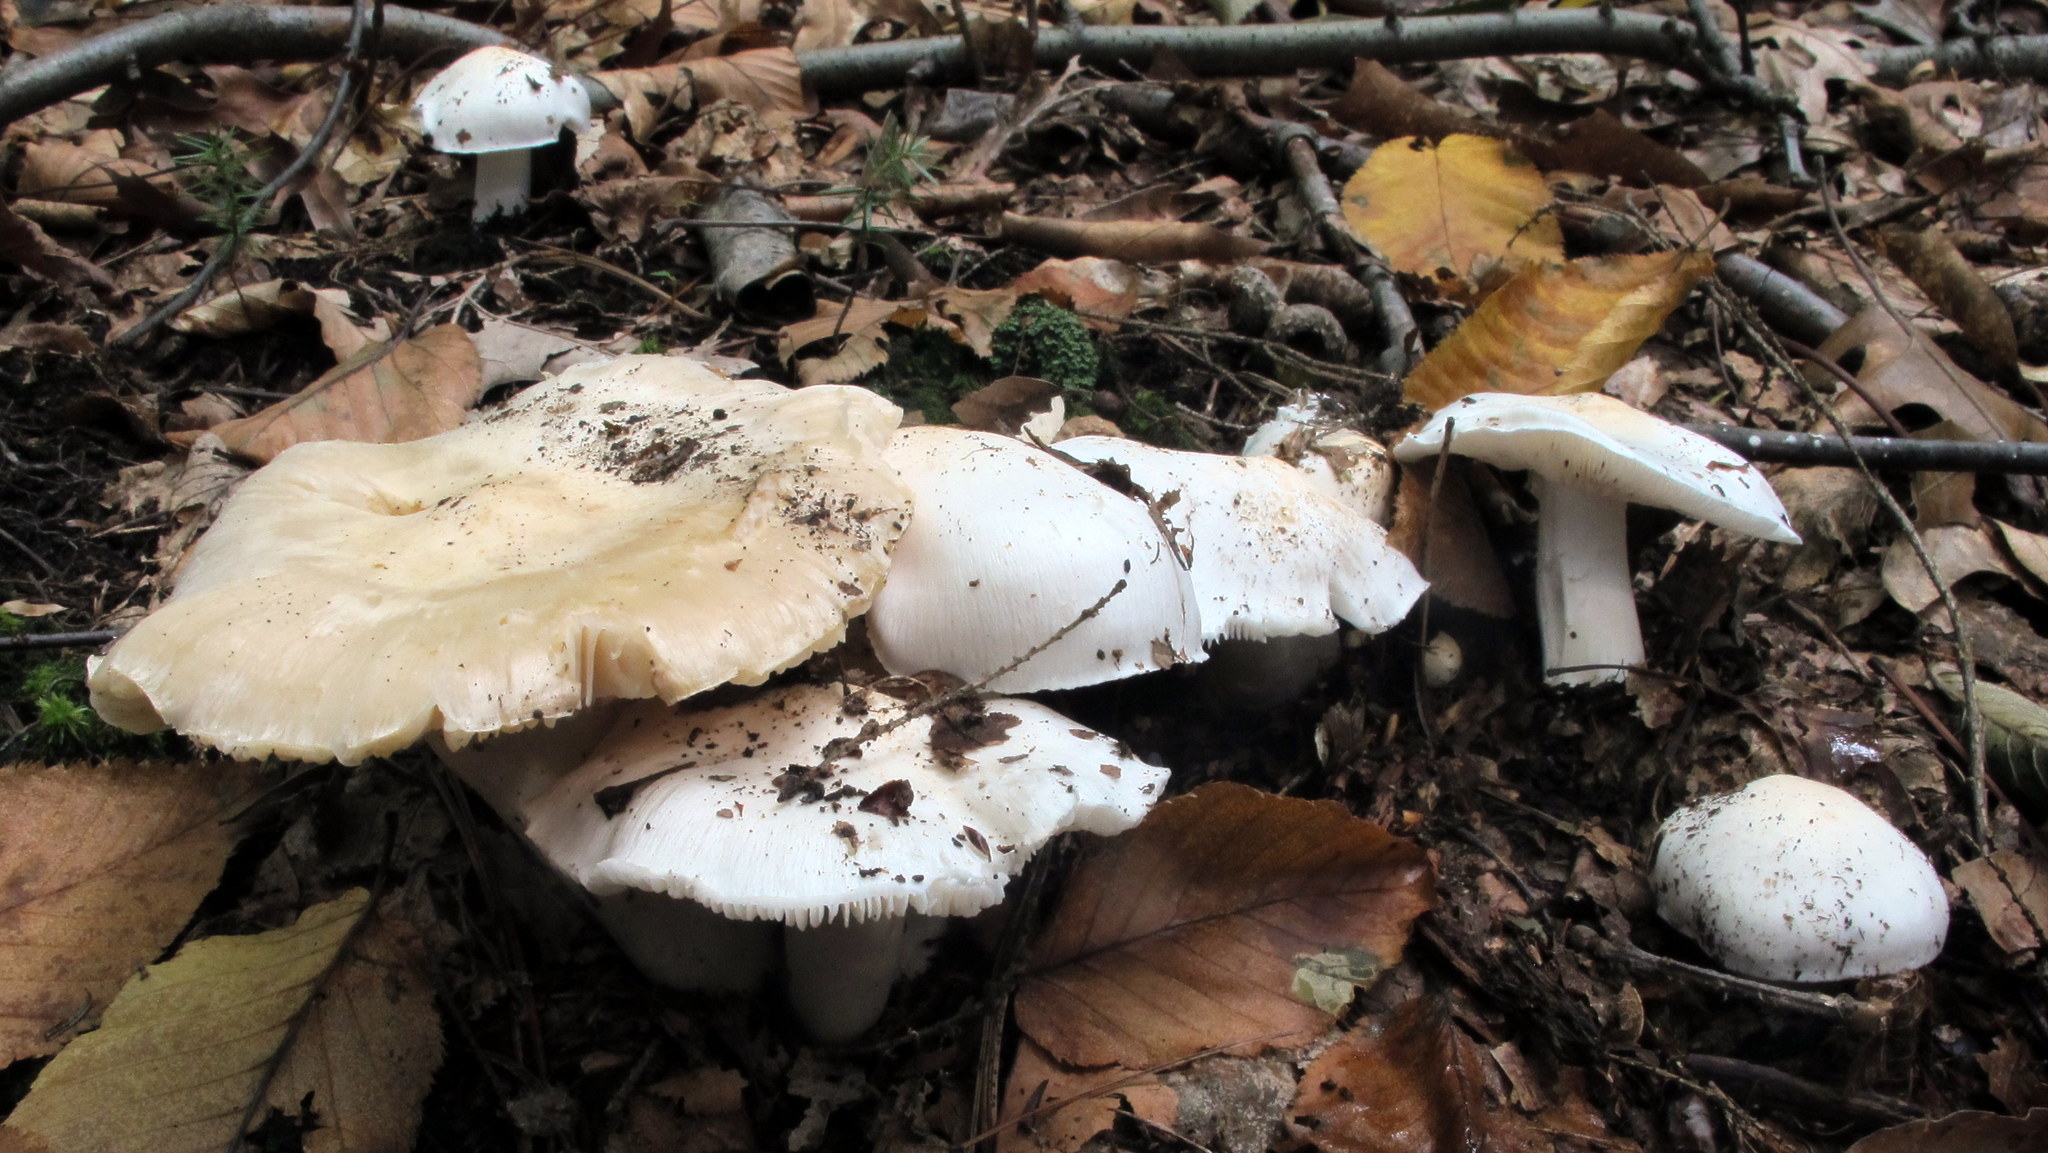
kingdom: Fungi
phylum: Basidiomycota
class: Agaricomycetes
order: Agaricales
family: Tricholomataceae
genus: Tricholoma
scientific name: Tricholoma subresplendens
